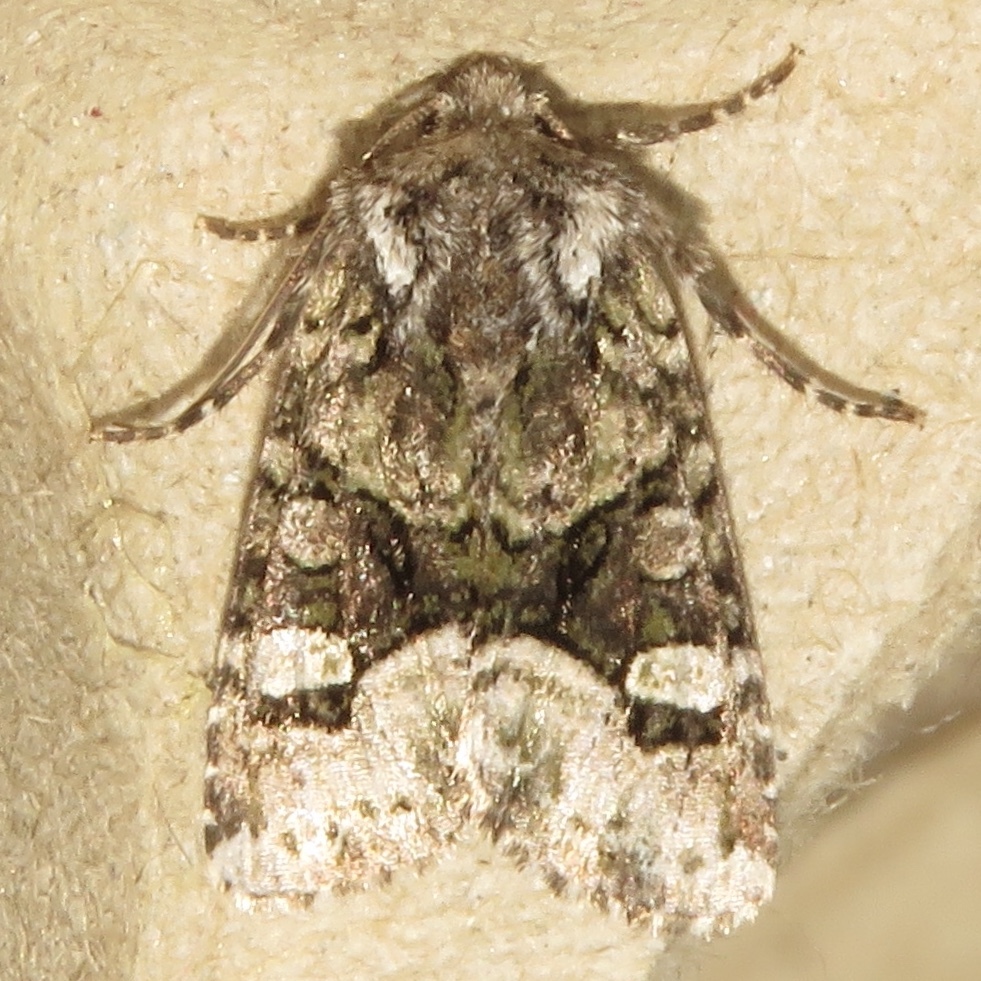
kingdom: Animalia
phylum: Arthropoda
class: Insecta
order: Lepidoptera
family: Noctuidae
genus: Lacinipolia
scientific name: Lacinipolia olivacea
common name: Olive arches moth
